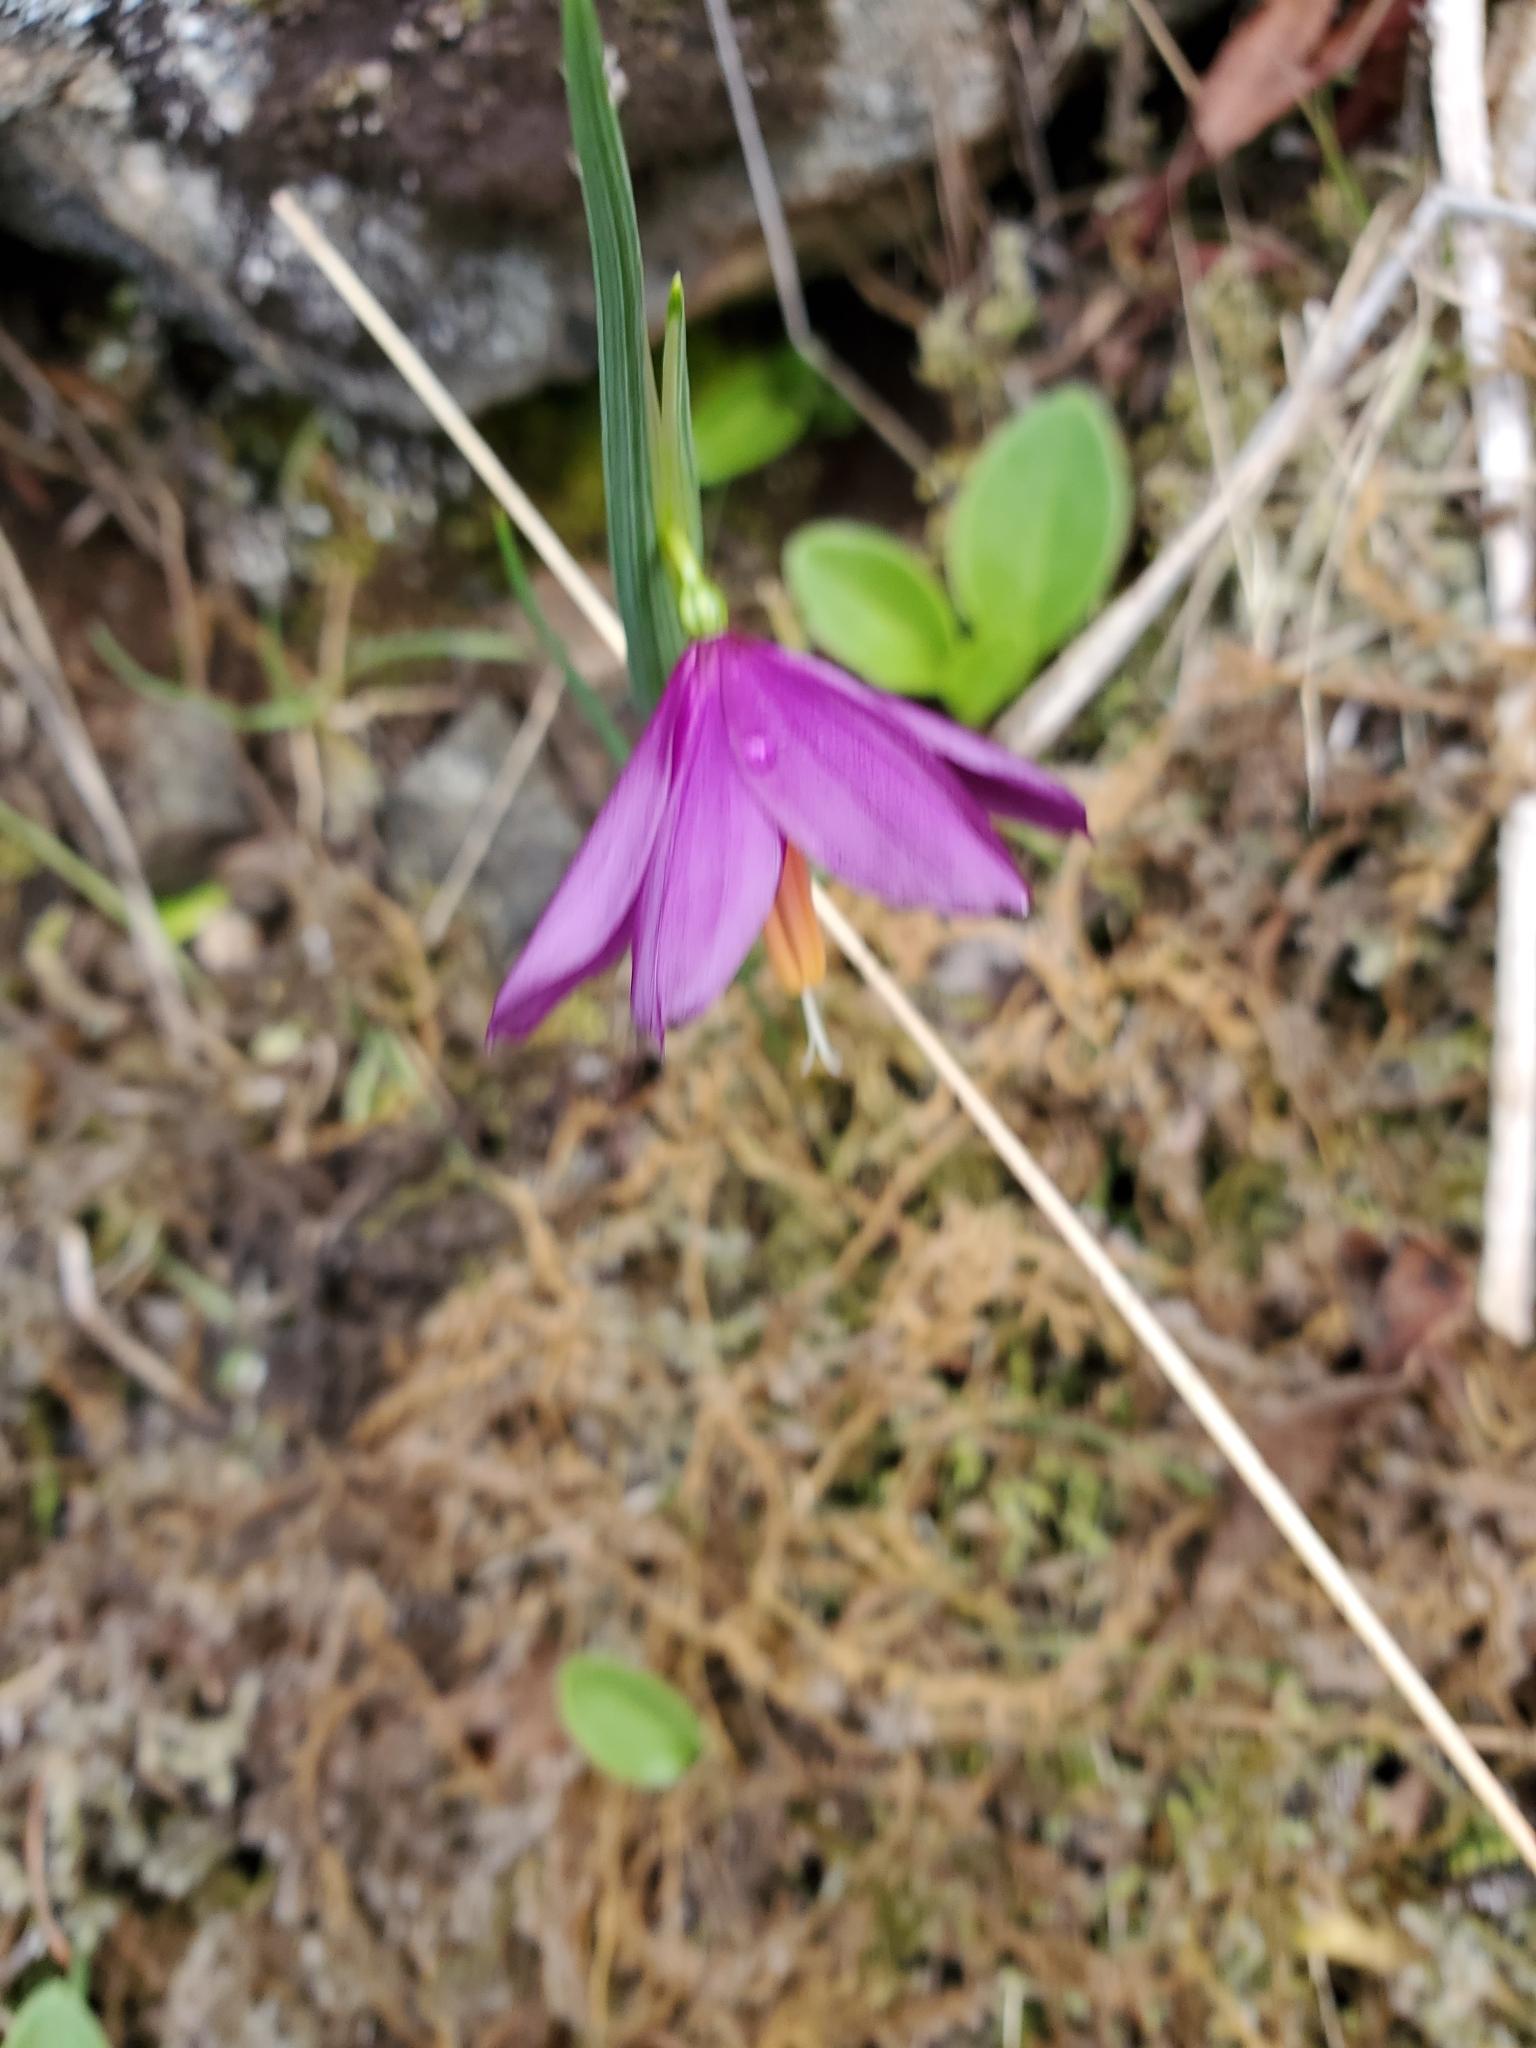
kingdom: Plantae
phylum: Tracheophyta
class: Liliopsida
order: Asparagales
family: Iridaceae
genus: Olsynium
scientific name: Olsynium douglasii
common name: Douglas' grasswidow
